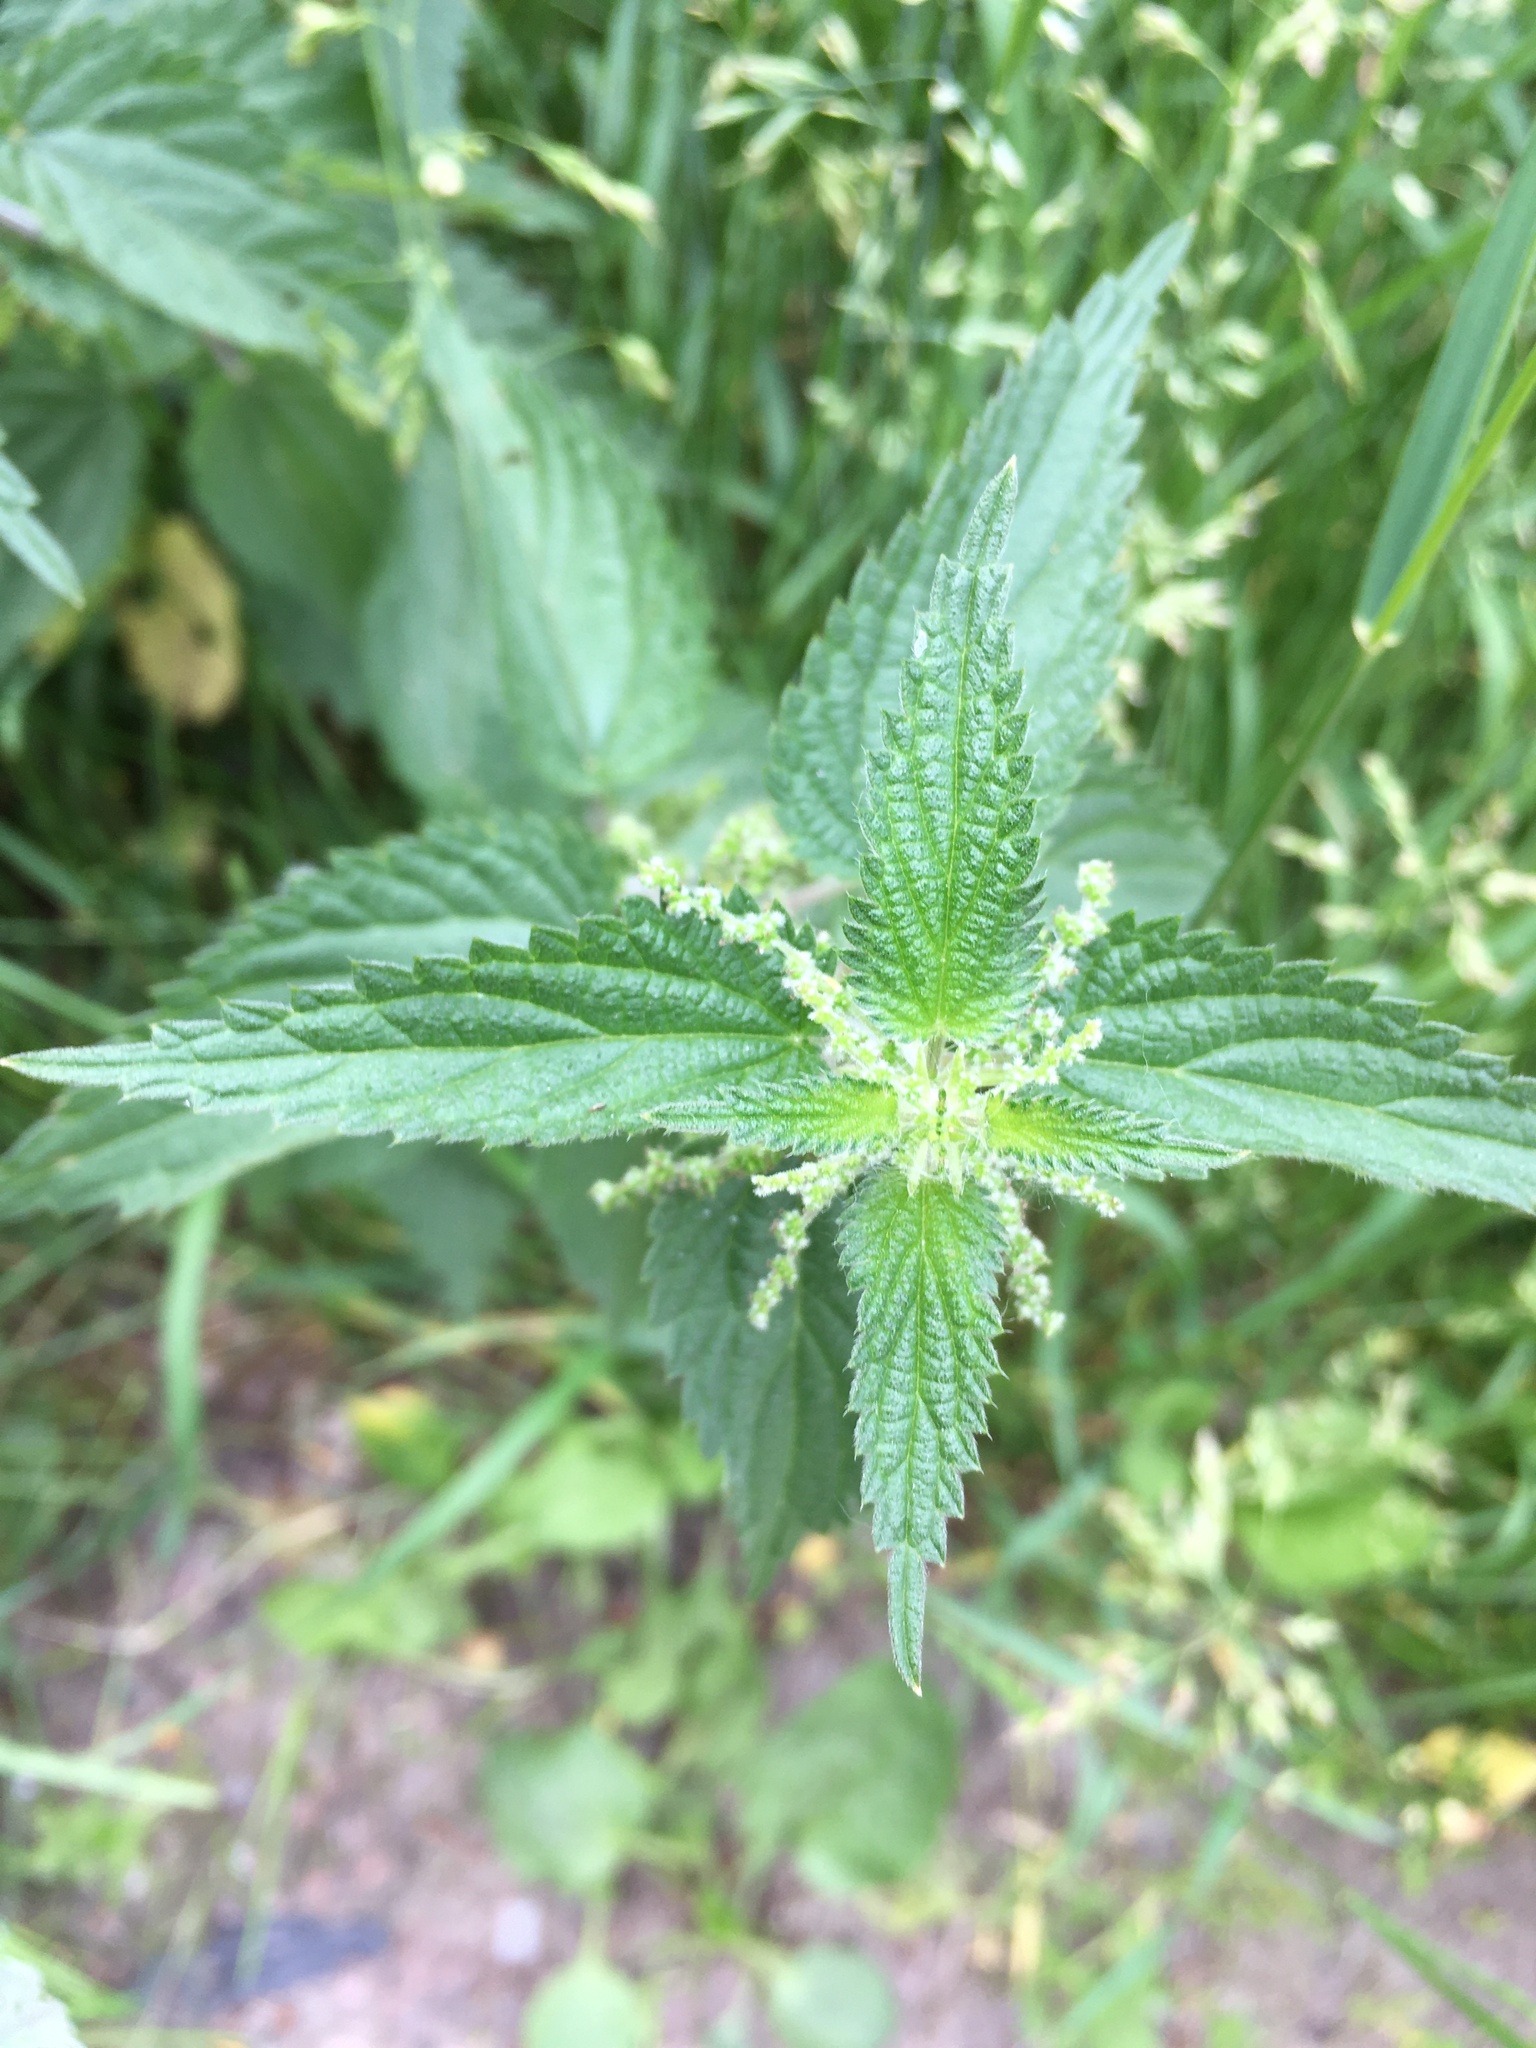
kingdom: Plantae
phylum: Tracheophyta
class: Magnoliopsida
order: Rosales
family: Urticaceae
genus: Urtica
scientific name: Urtica dioica
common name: Common nettle
